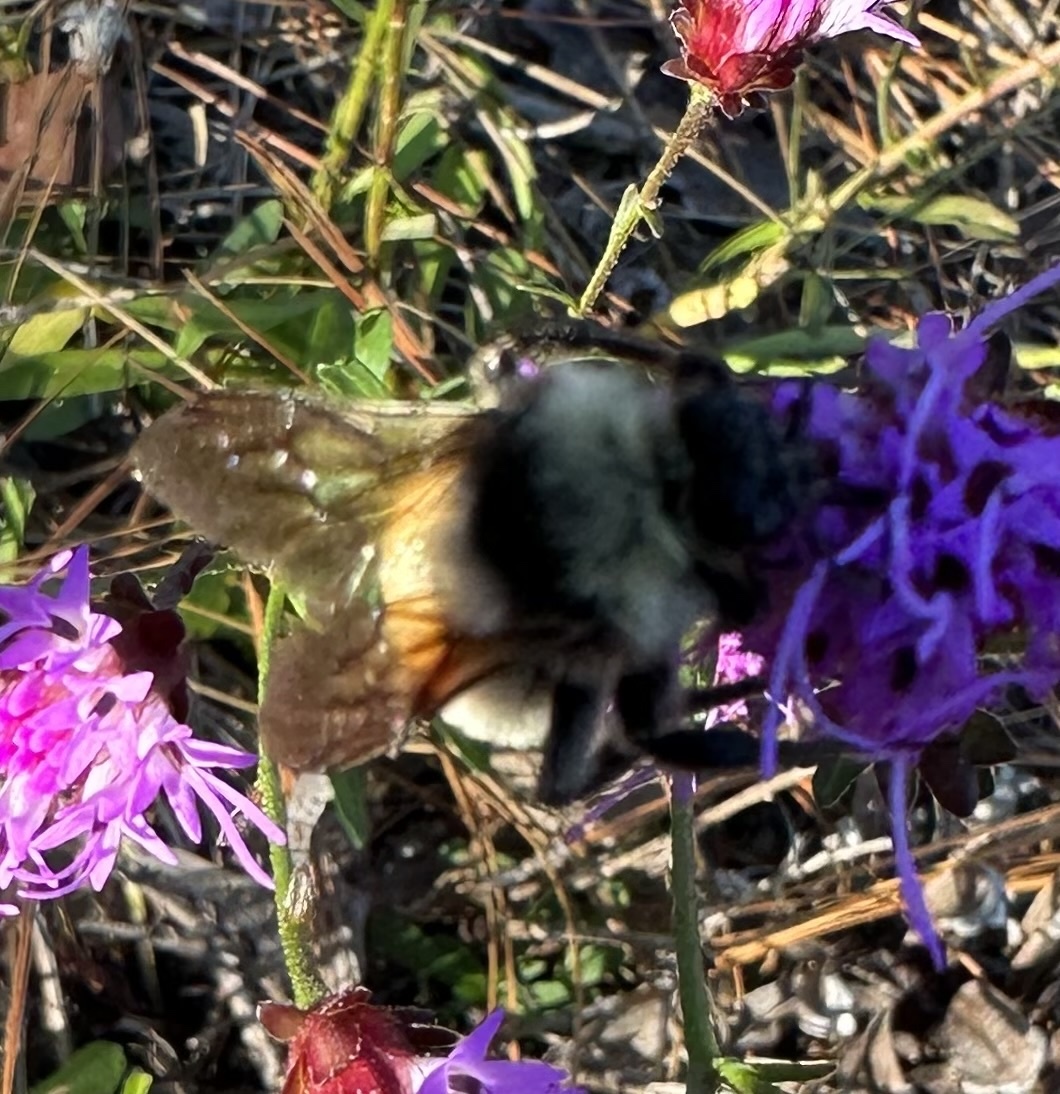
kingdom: Animalia
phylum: Arthropoda
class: Insecta
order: Hymenoptera
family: Apidae
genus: Bombus
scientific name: Bombus pensylvanicus
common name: Bumble bee
